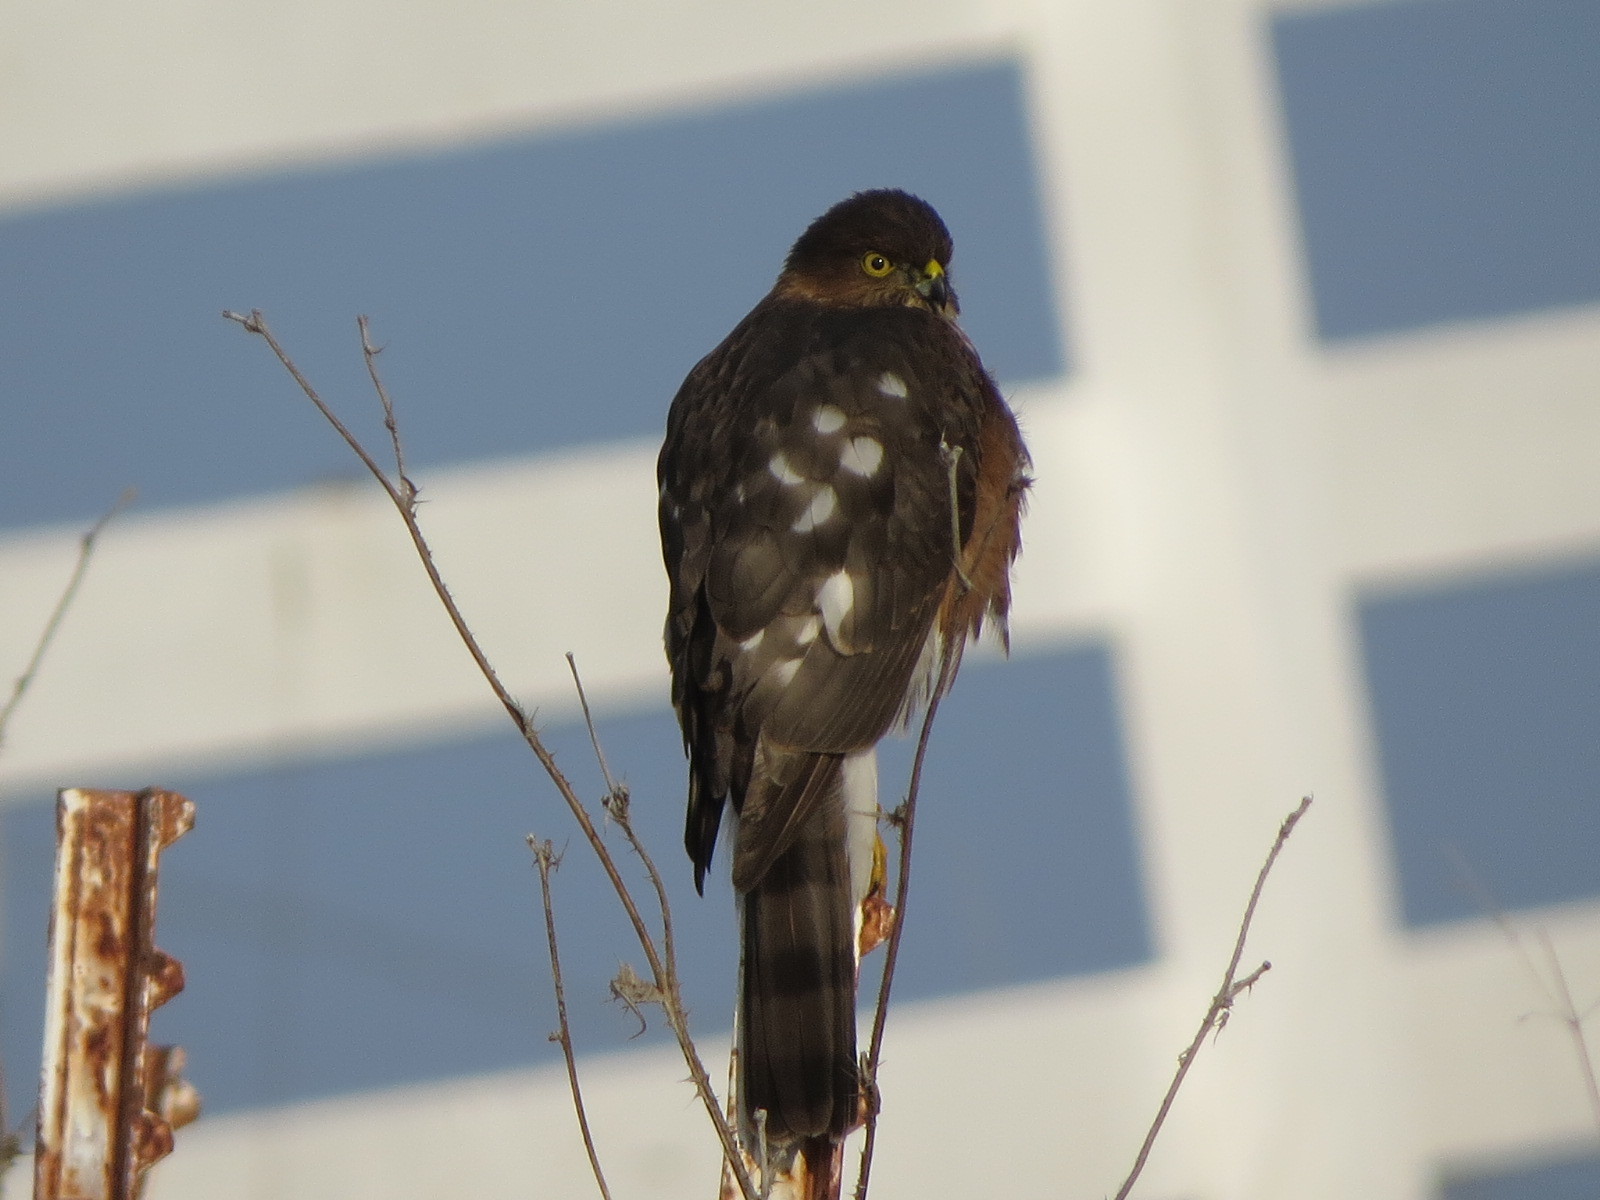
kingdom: Animalia
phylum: Chordata
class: Aves
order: Accipitriformes
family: Accipitridae
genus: Accipiter
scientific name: Accipiter striatus
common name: Sharp-shinned hawk
